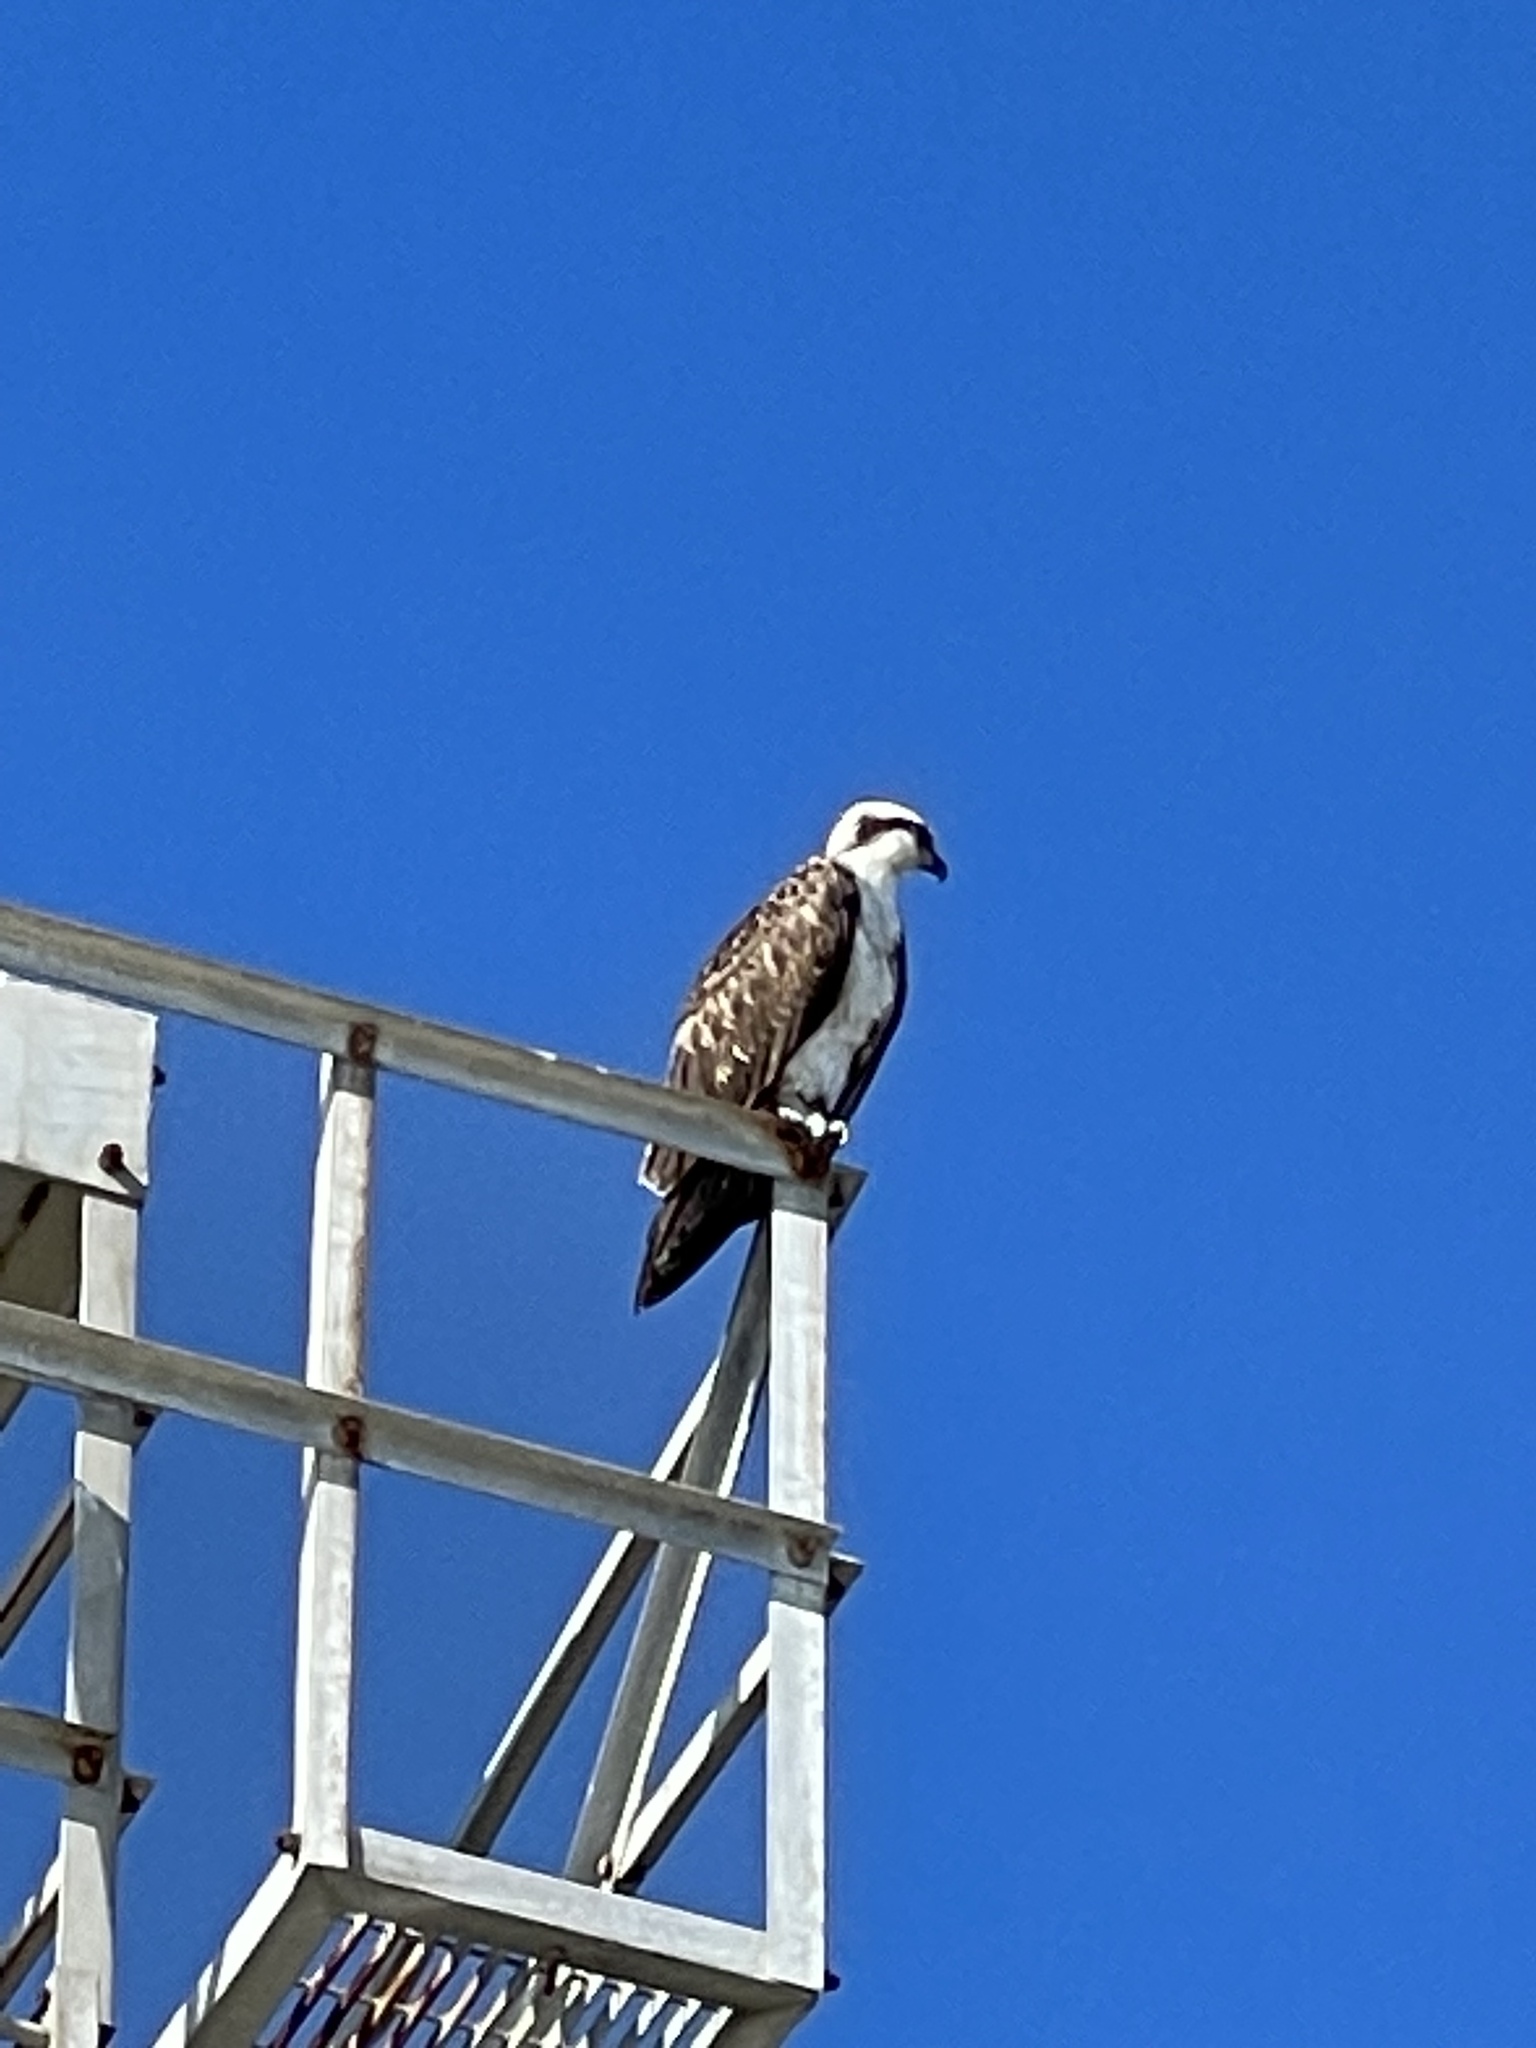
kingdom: Animalia
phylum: Chordata
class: Aves
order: Accipitriformes
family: Pandionidae
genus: Pandion
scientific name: Pandion haliaetus
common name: Osprey
